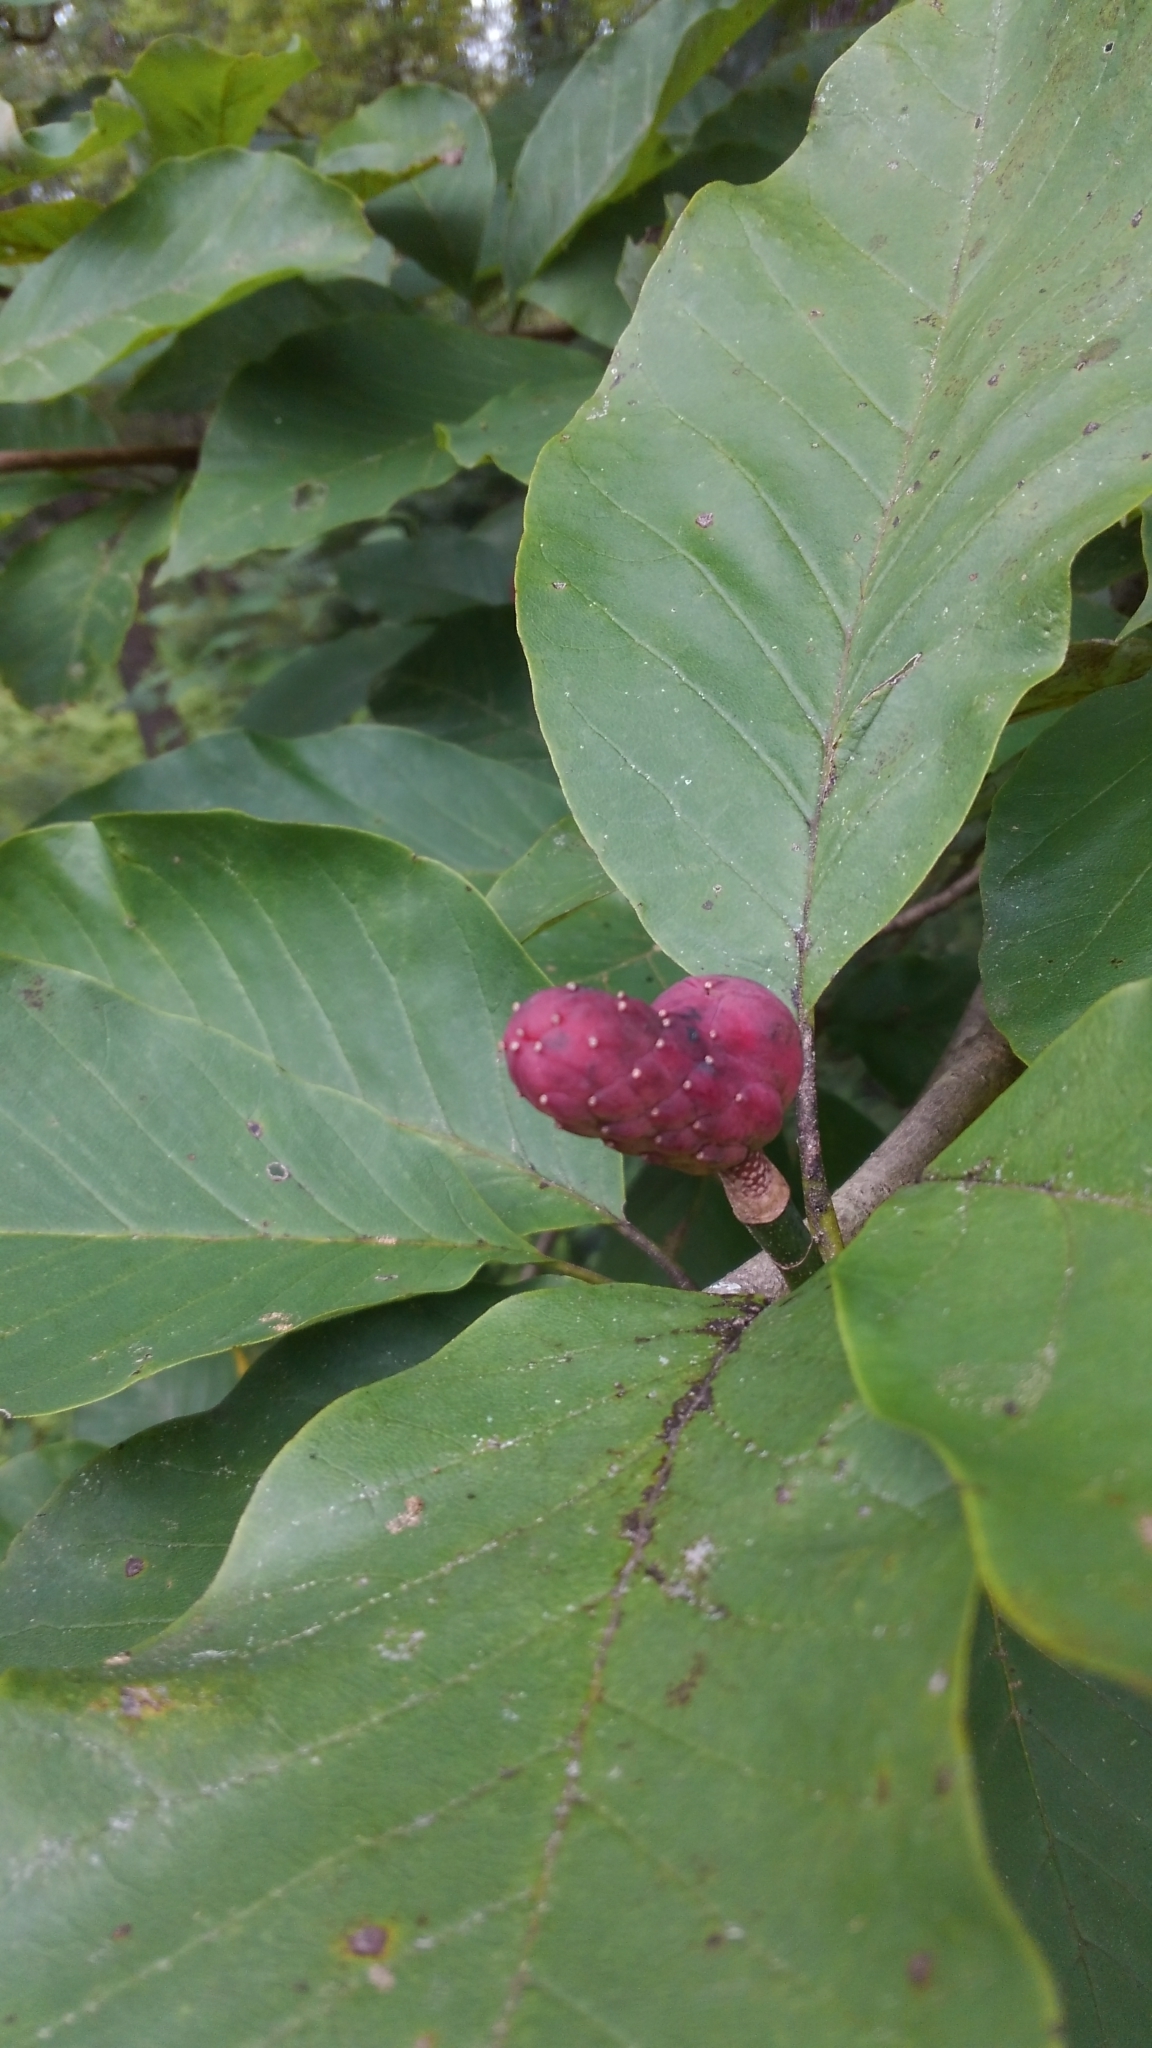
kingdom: Plantae
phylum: Tracheophyta
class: Magnoliopsida
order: Magnoliales
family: Magnoliaceae
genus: Magnolia
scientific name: Magnolia acuminata
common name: Cucumber magnolia
